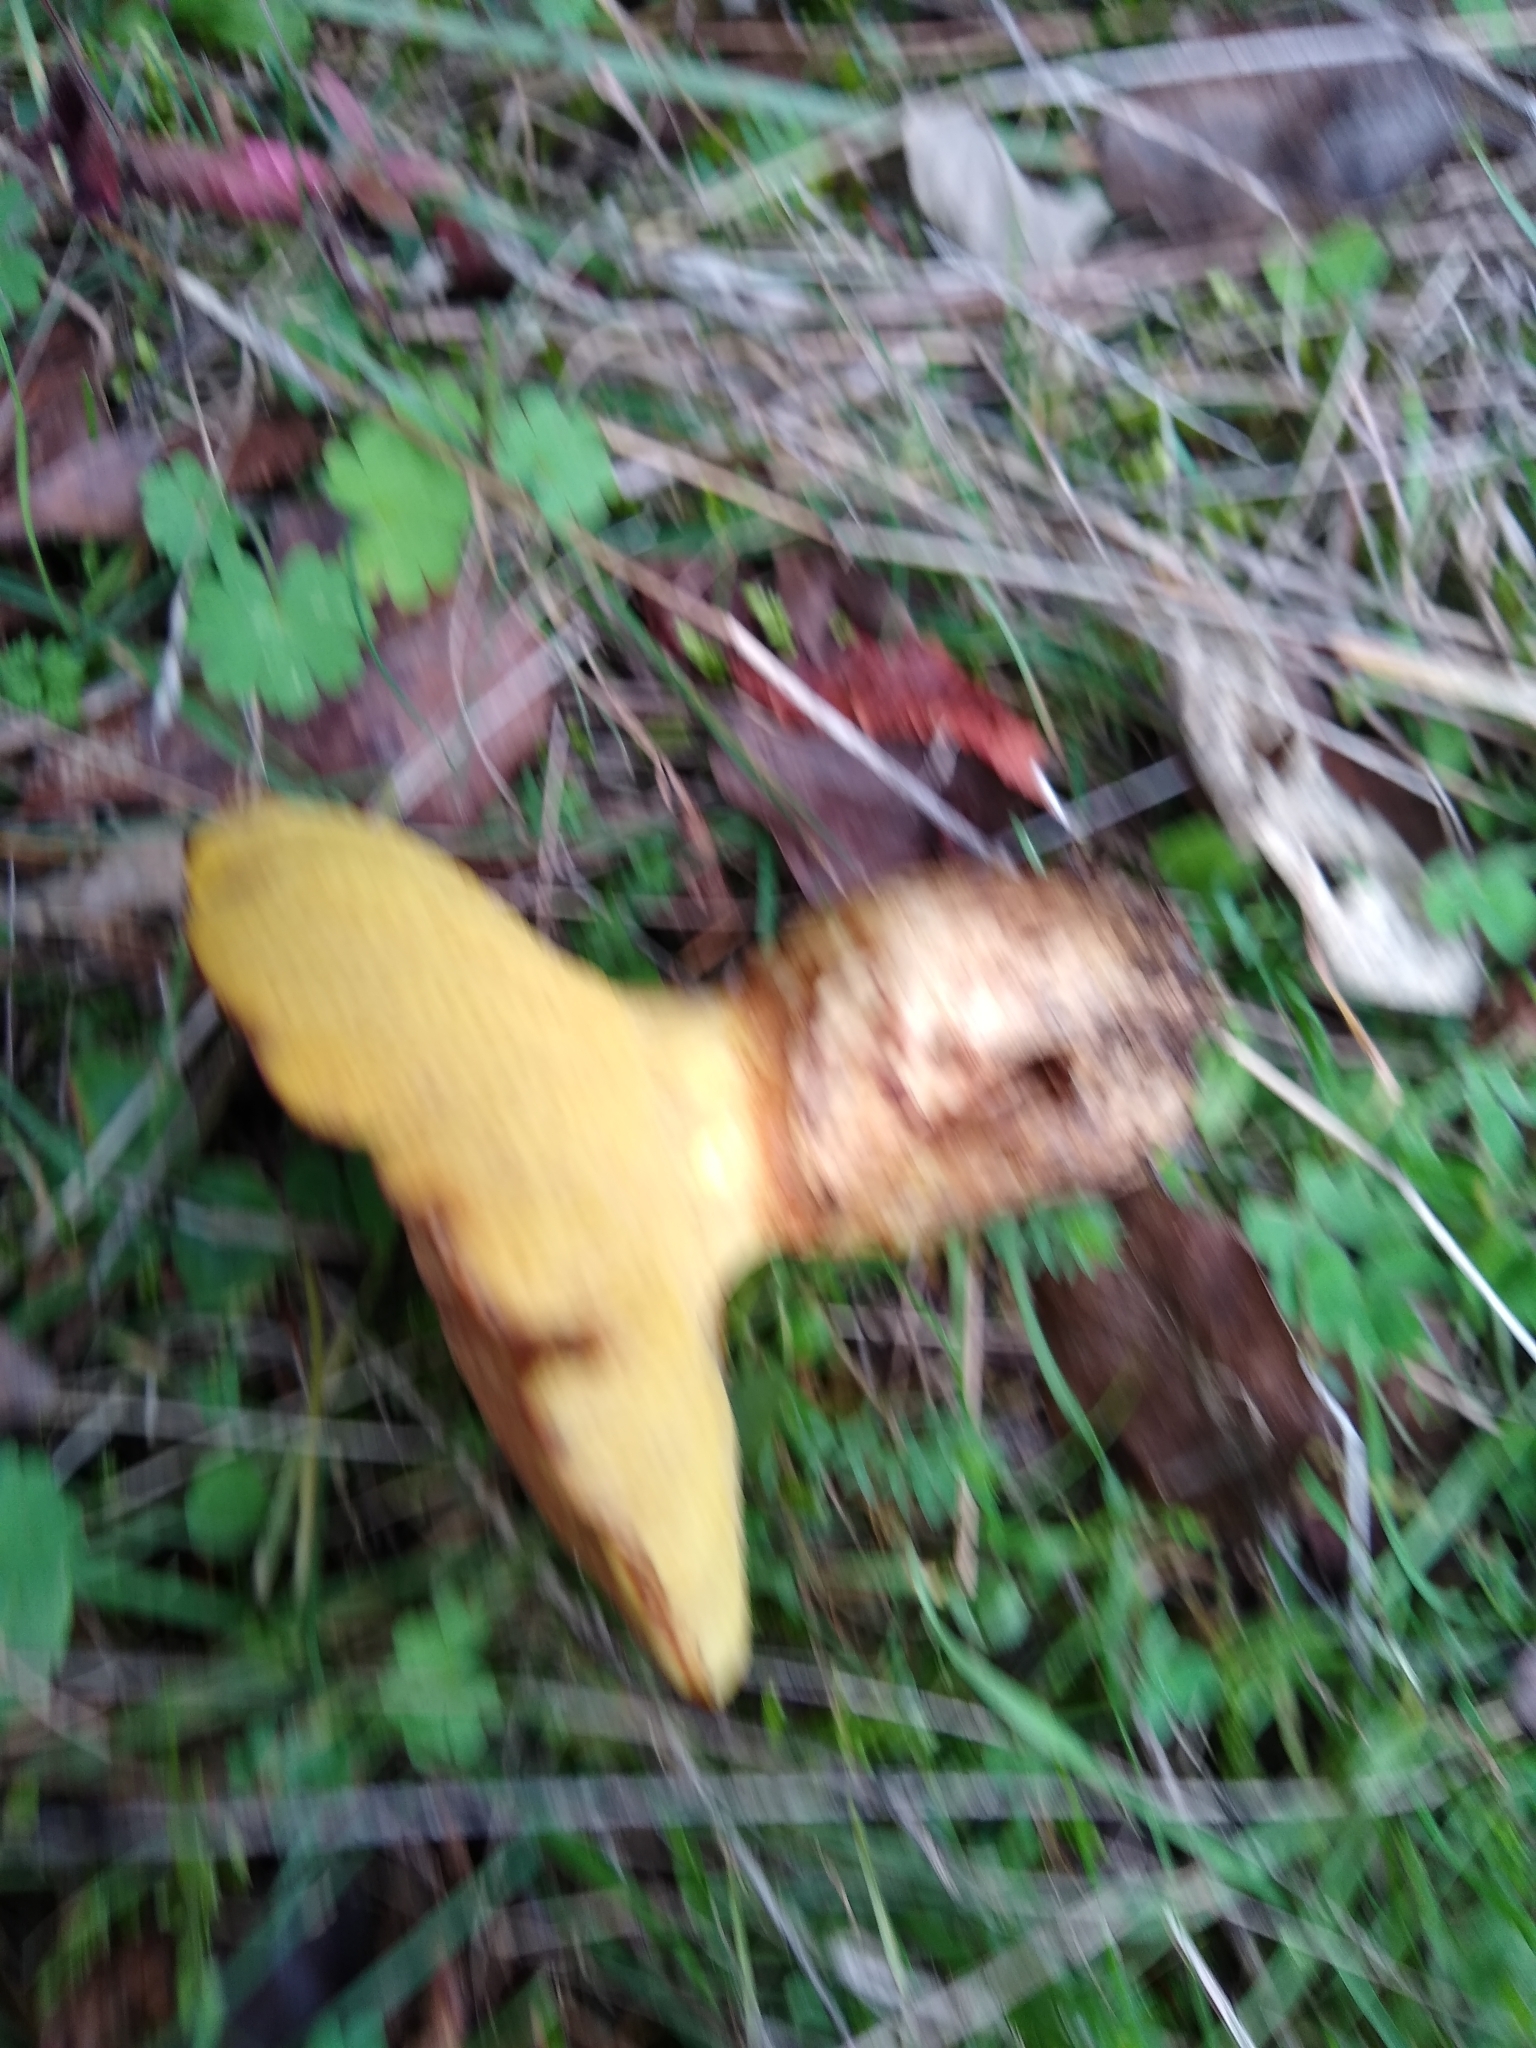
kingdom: Fungi
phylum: Basidiomycota
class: Agaricomycetes
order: Boletales
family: Suillaceae
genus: Suillus
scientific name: Suillus caerulescens
